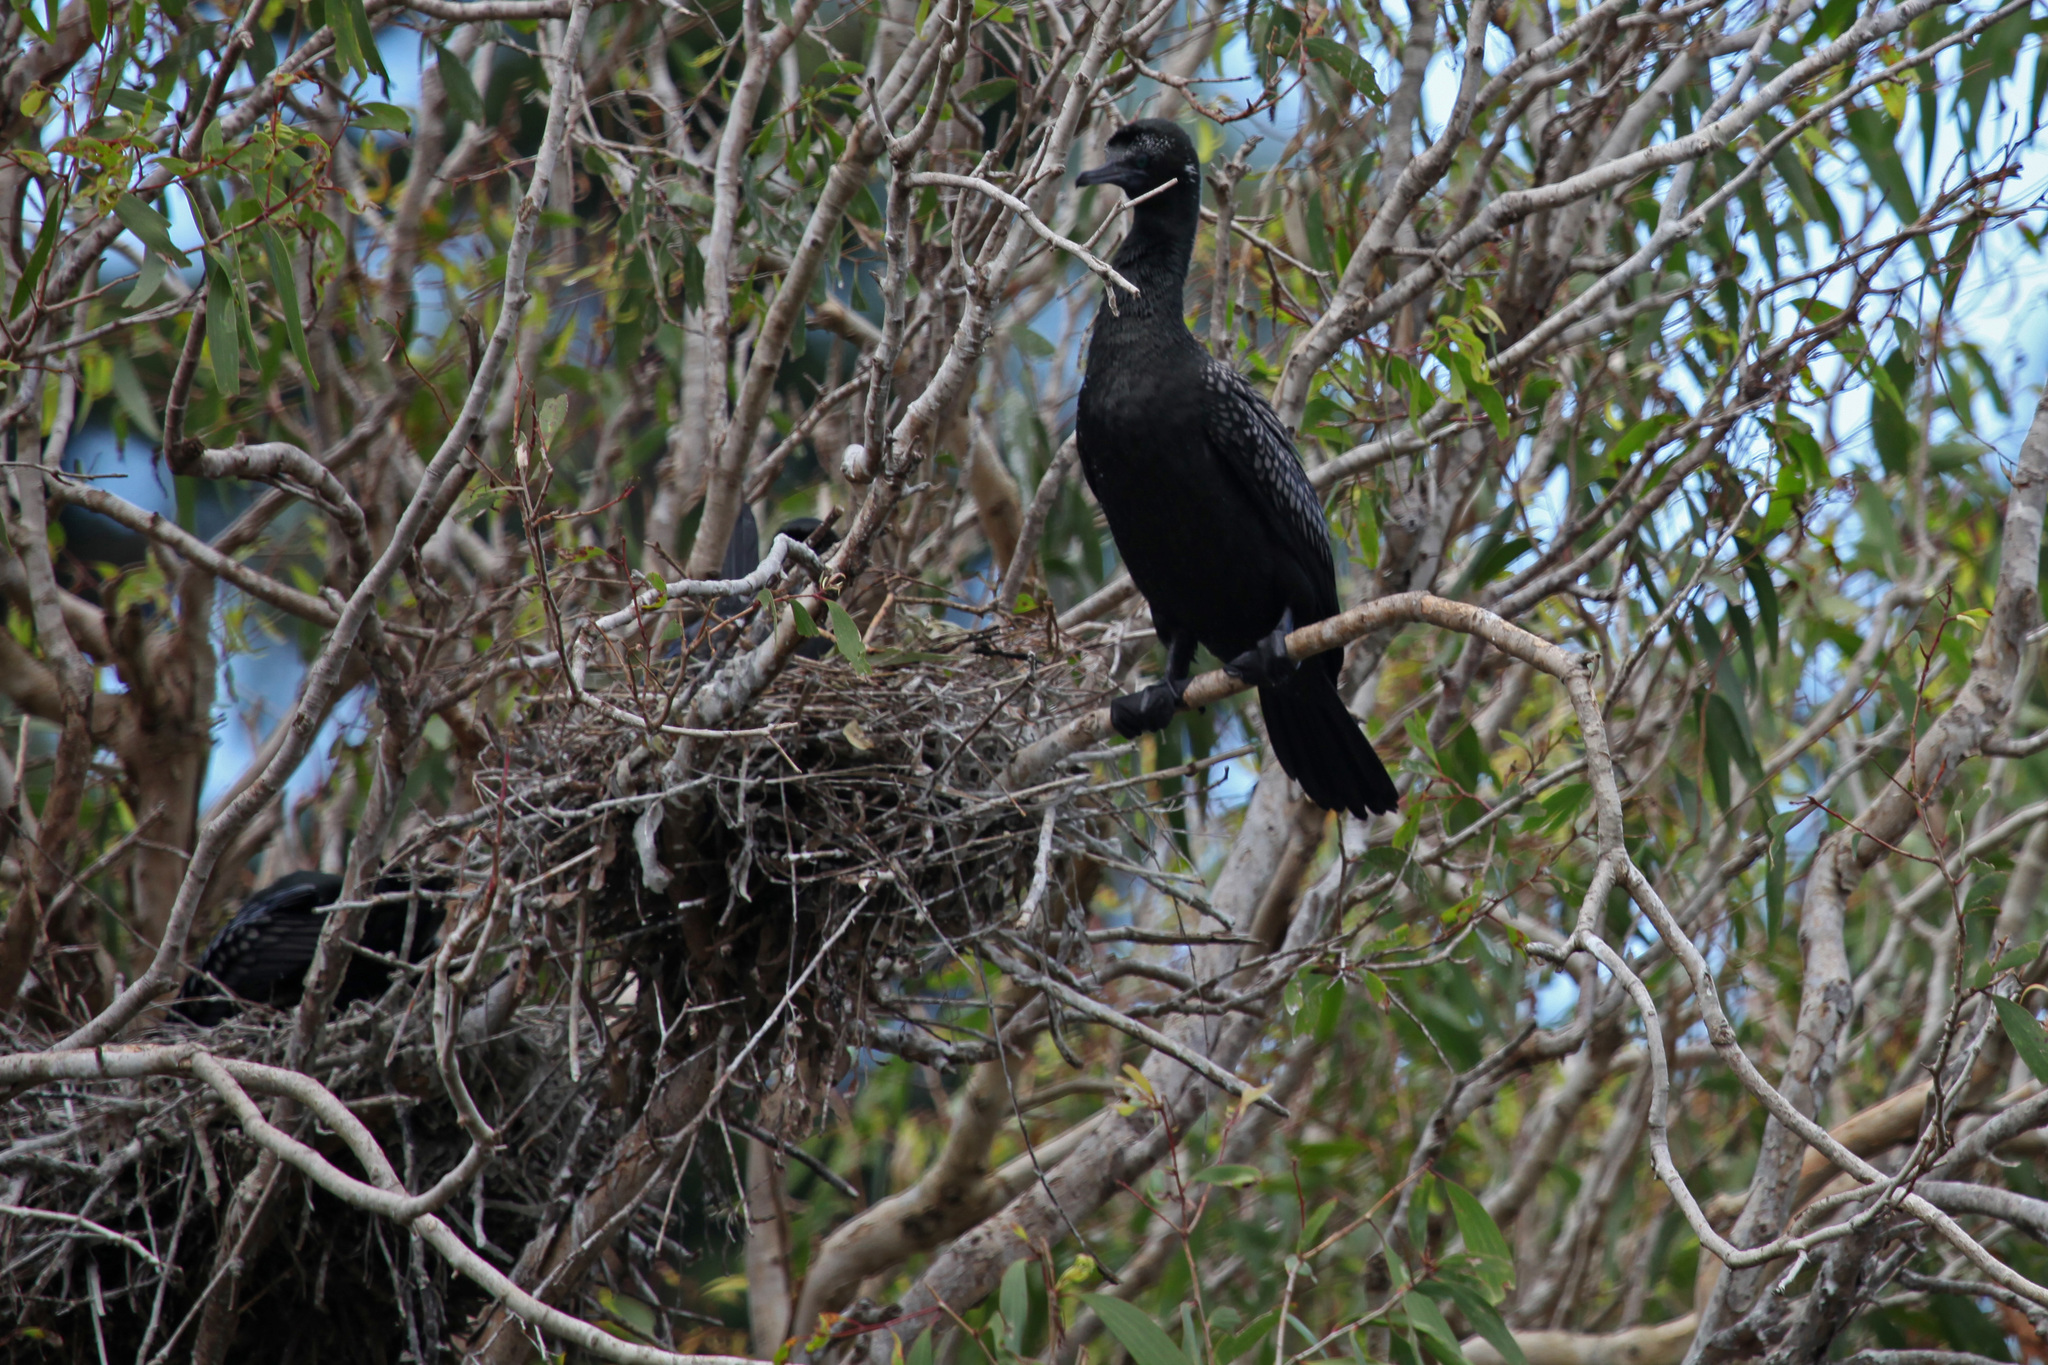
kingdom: Animalia
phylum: Chordata
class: Aves
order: Suliformes
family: Phalacrocoracidae
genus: Phalacrocorax
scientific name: Phalacrocorax sulcirostris
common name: Little black cormorant
